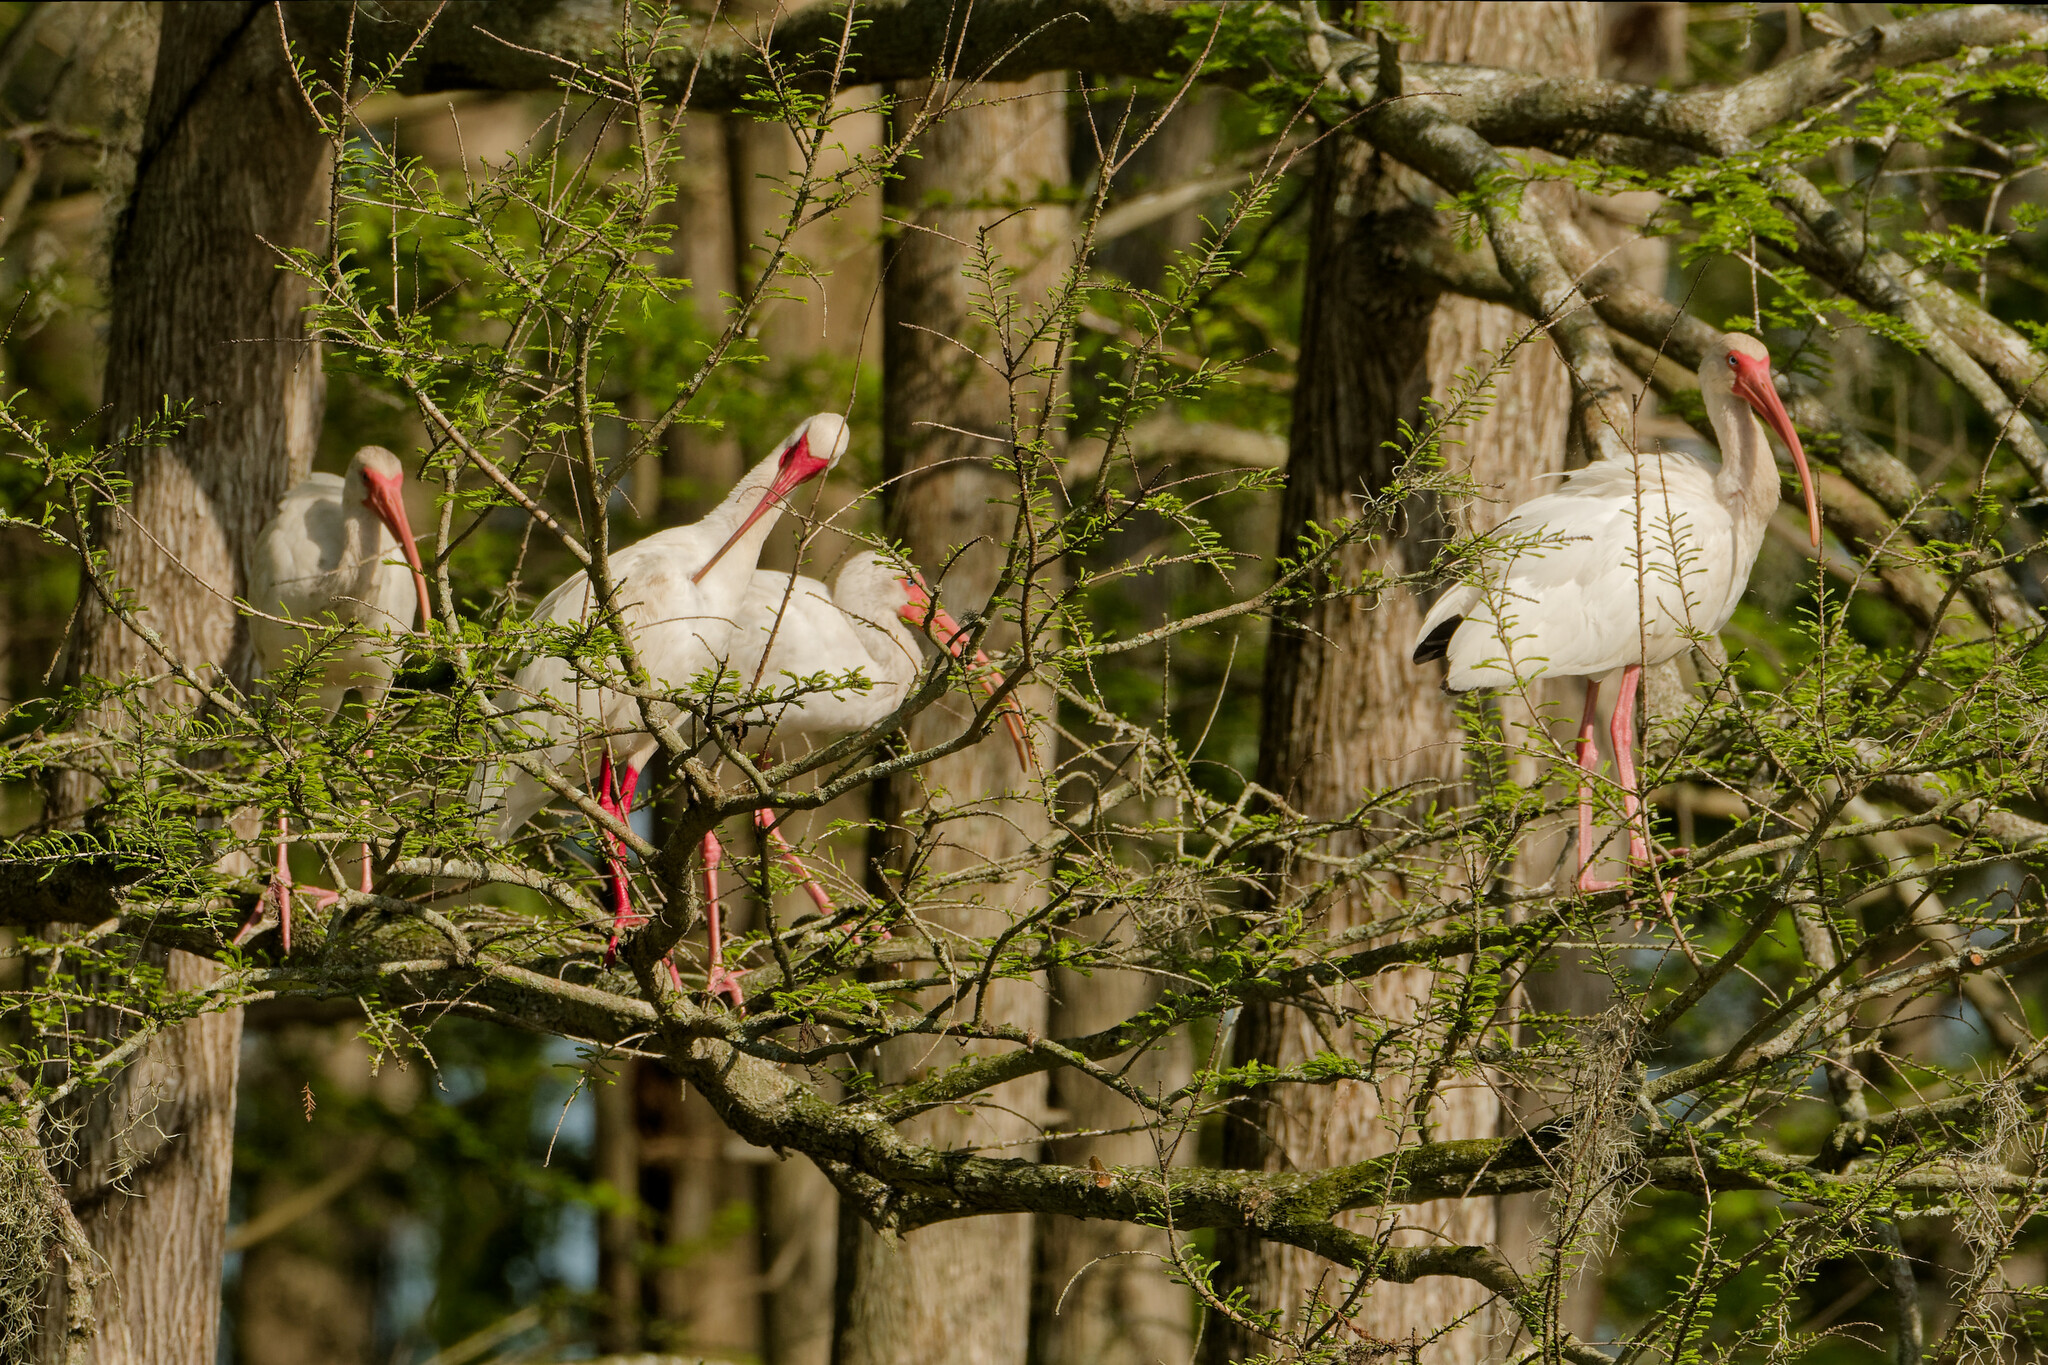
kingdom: Animalia
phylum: Chordata
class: Aves
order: Pelecaniformes
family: Threskiornithidae
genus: Eudocimus
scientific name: Eudocimus albus
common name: White ibis
